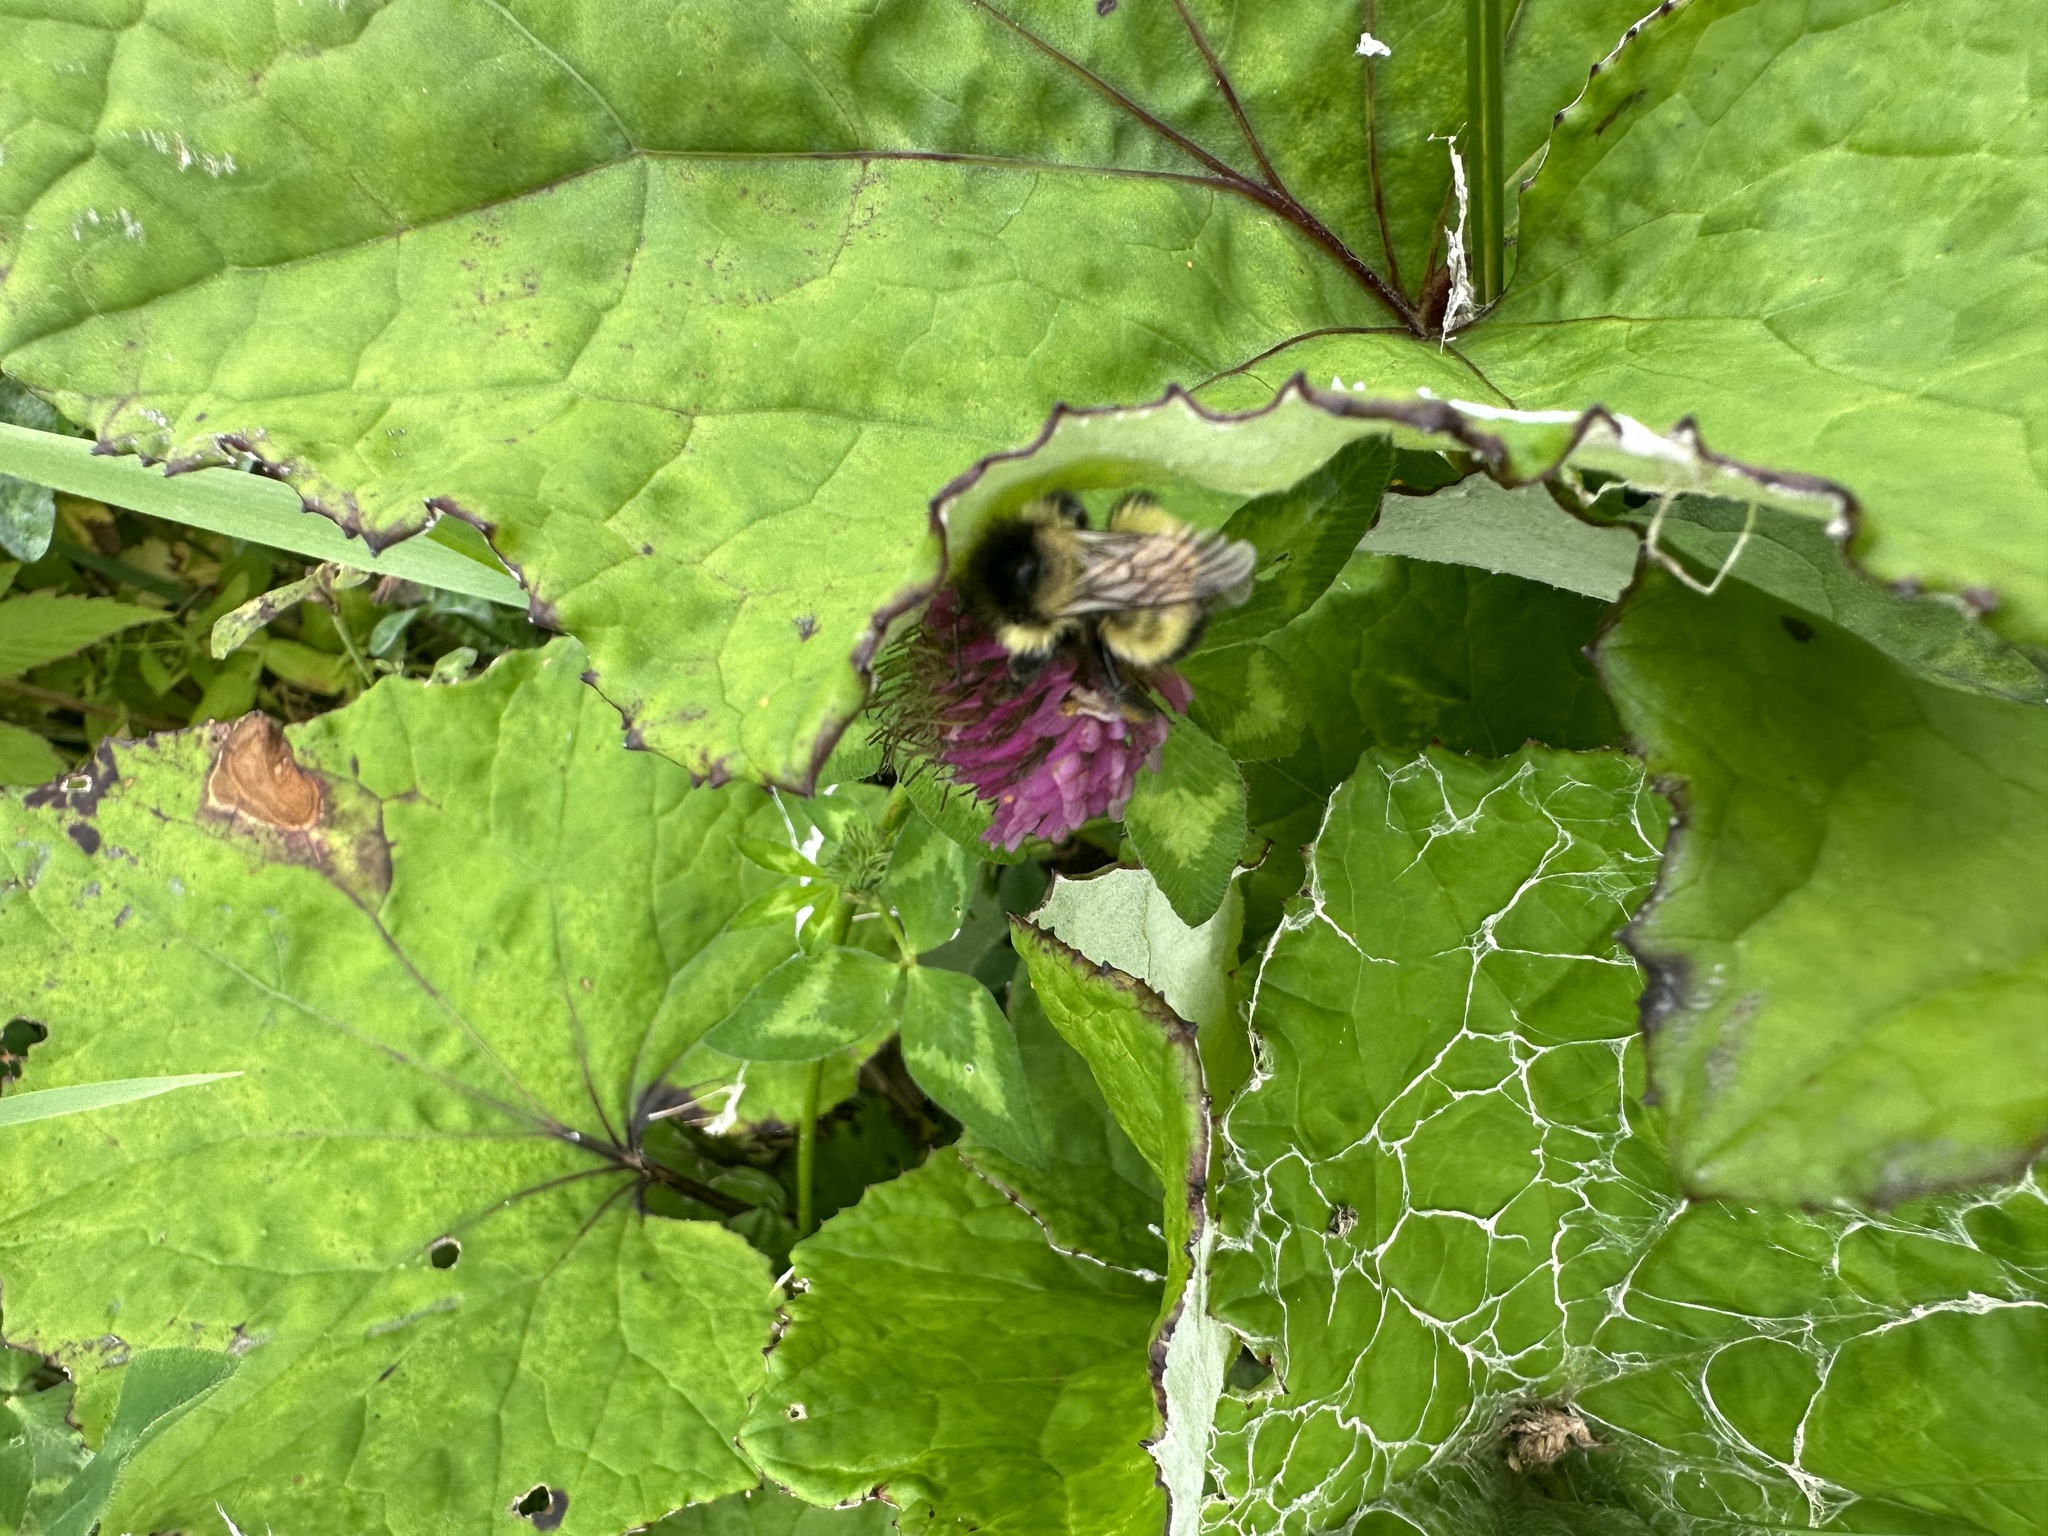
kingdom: Animalia
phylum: Arthropoda
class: Insecta
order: Hymenoptera
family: Apidae
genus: Bombus
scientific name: Bombus vagans
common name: Half-black bumble bee
